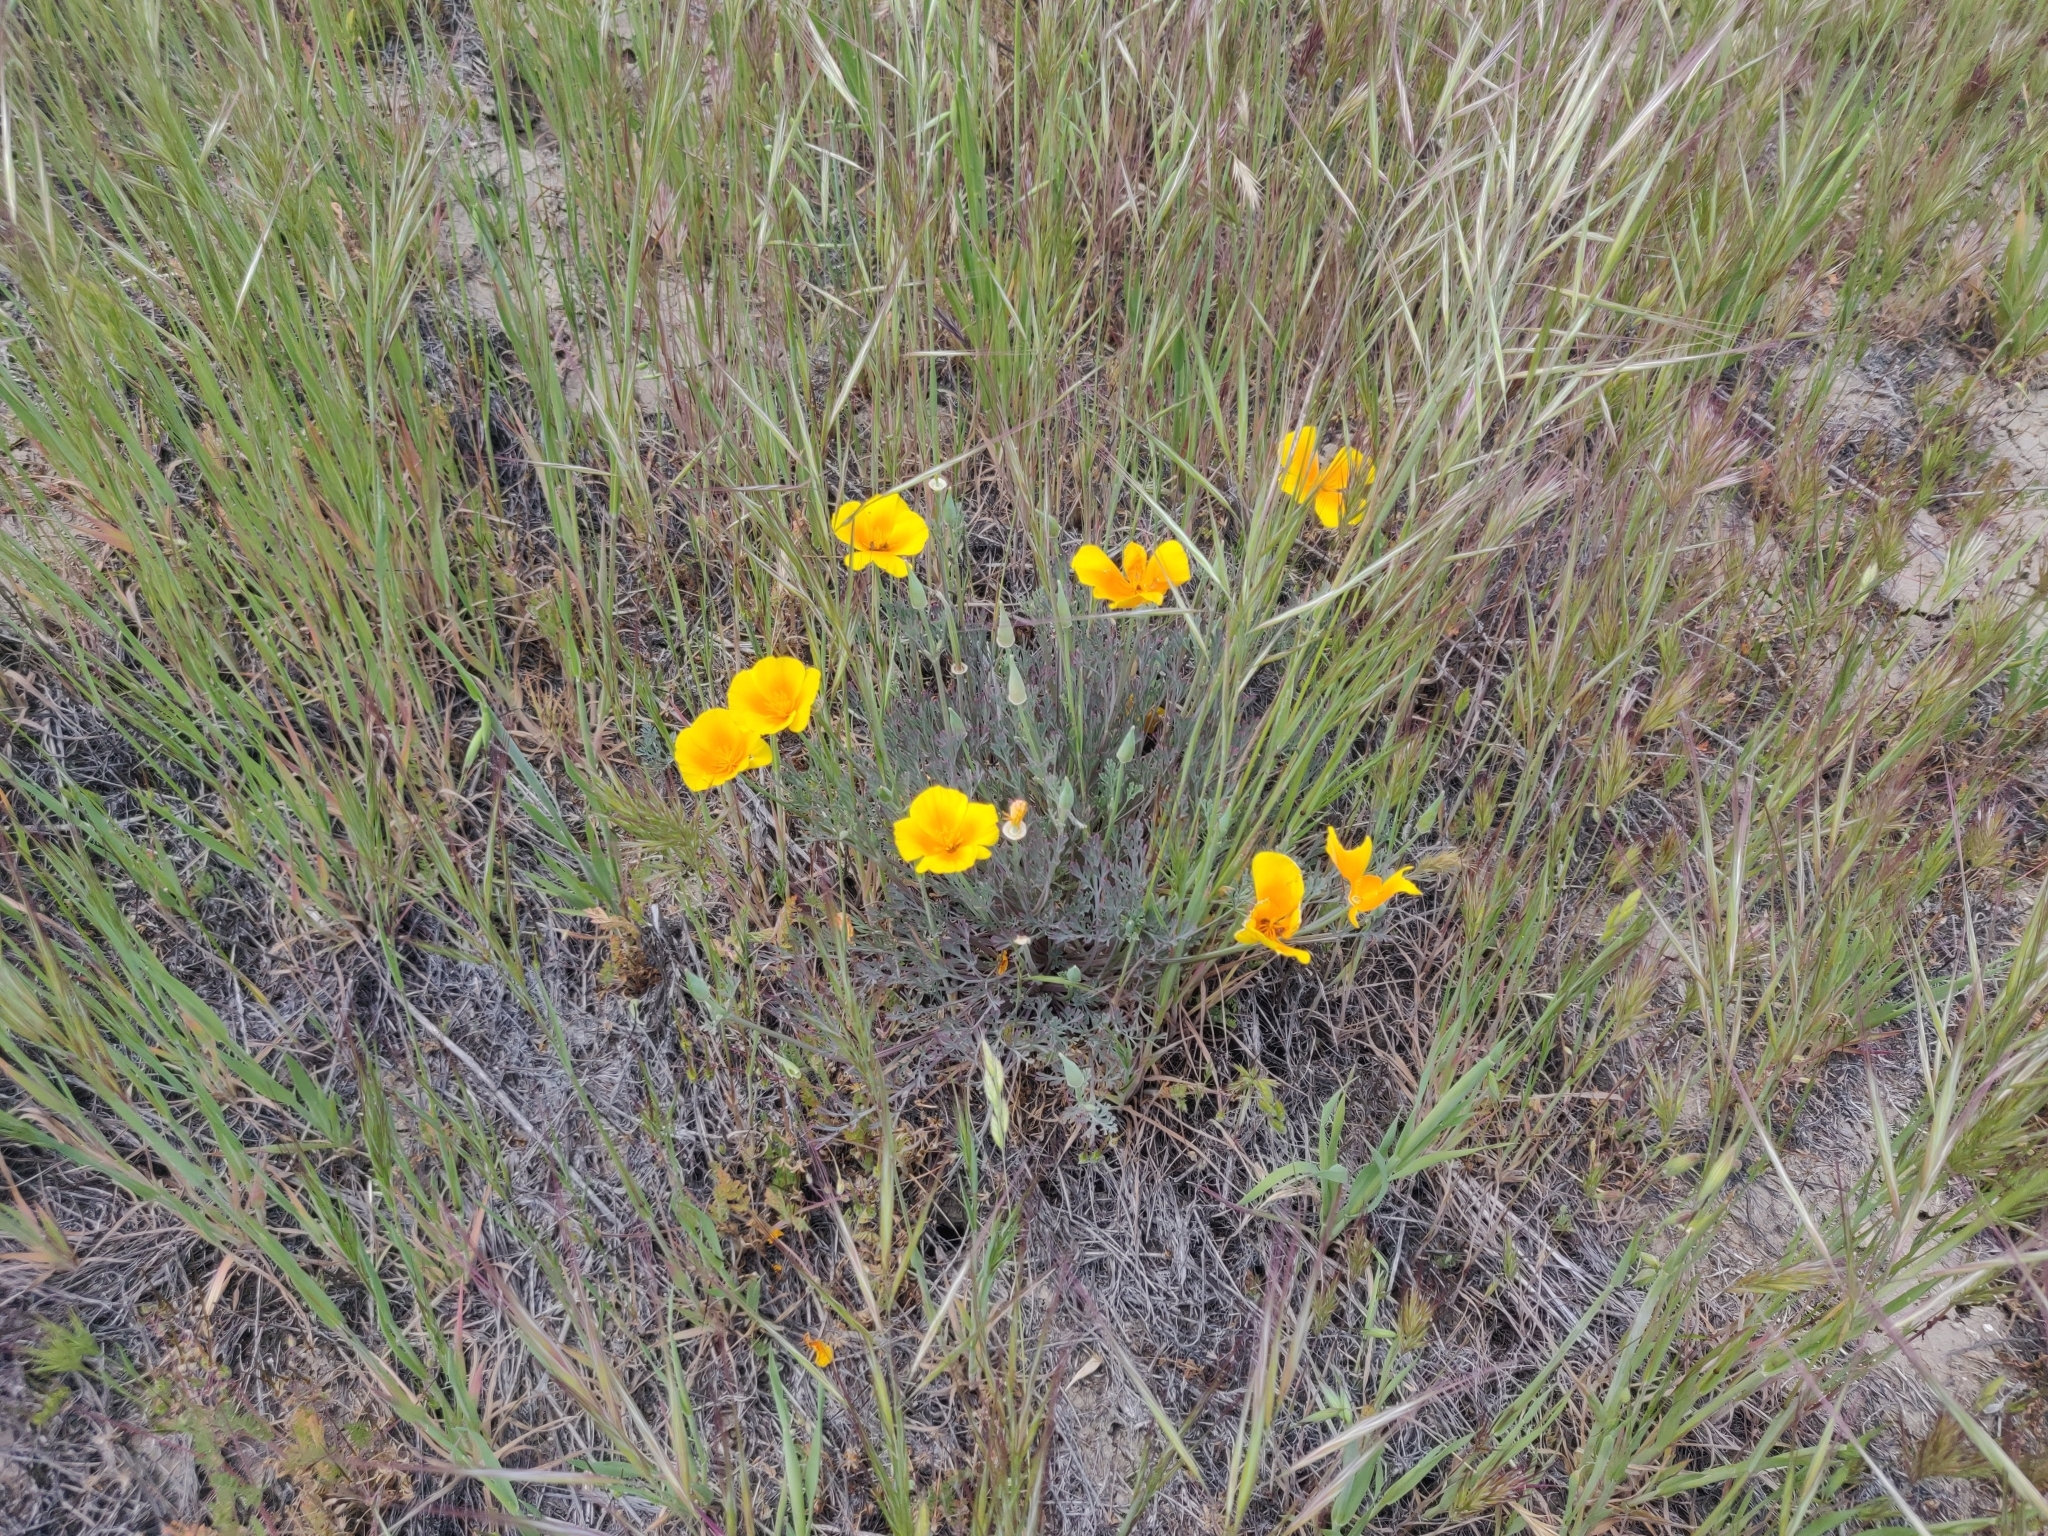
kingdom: Plantae
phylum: Tracheophyta
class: Magnoliopsida
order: Ranunculales
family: Papaveraceae
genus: Eschscholzia
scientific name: Eschscholzia californica
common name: California poppy
